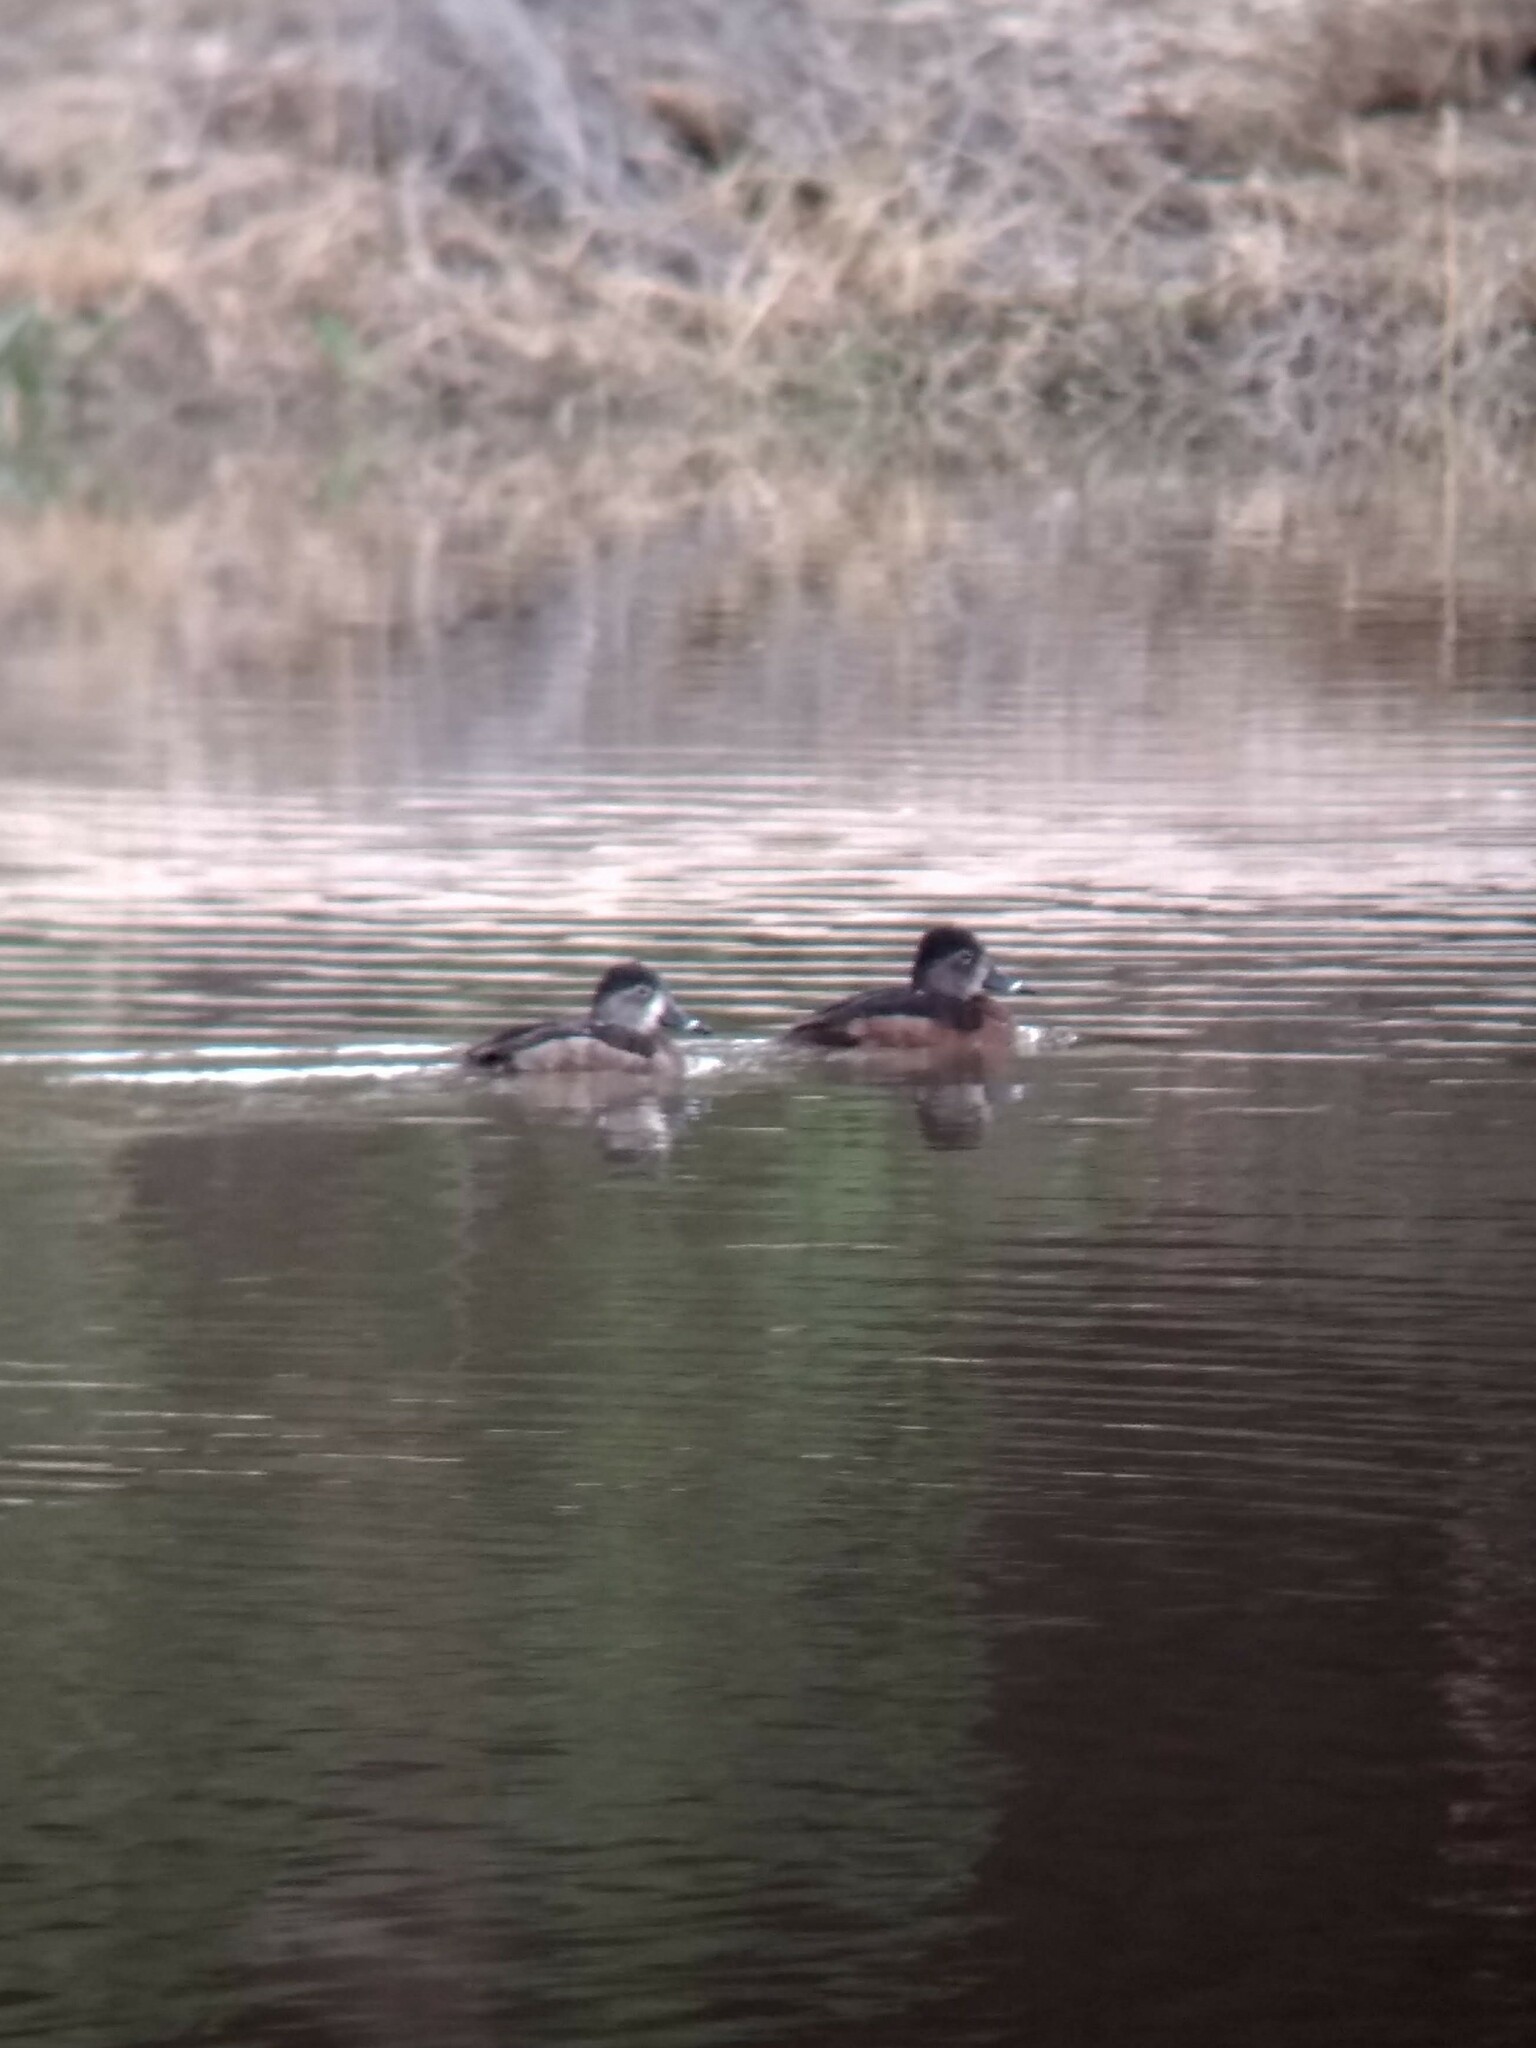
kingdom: Animalia
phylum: Chordata
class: Aves
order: Anseriformes
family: Anatidae
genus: Aythya
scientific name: Aythya collaris
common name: Ring-necked duck
